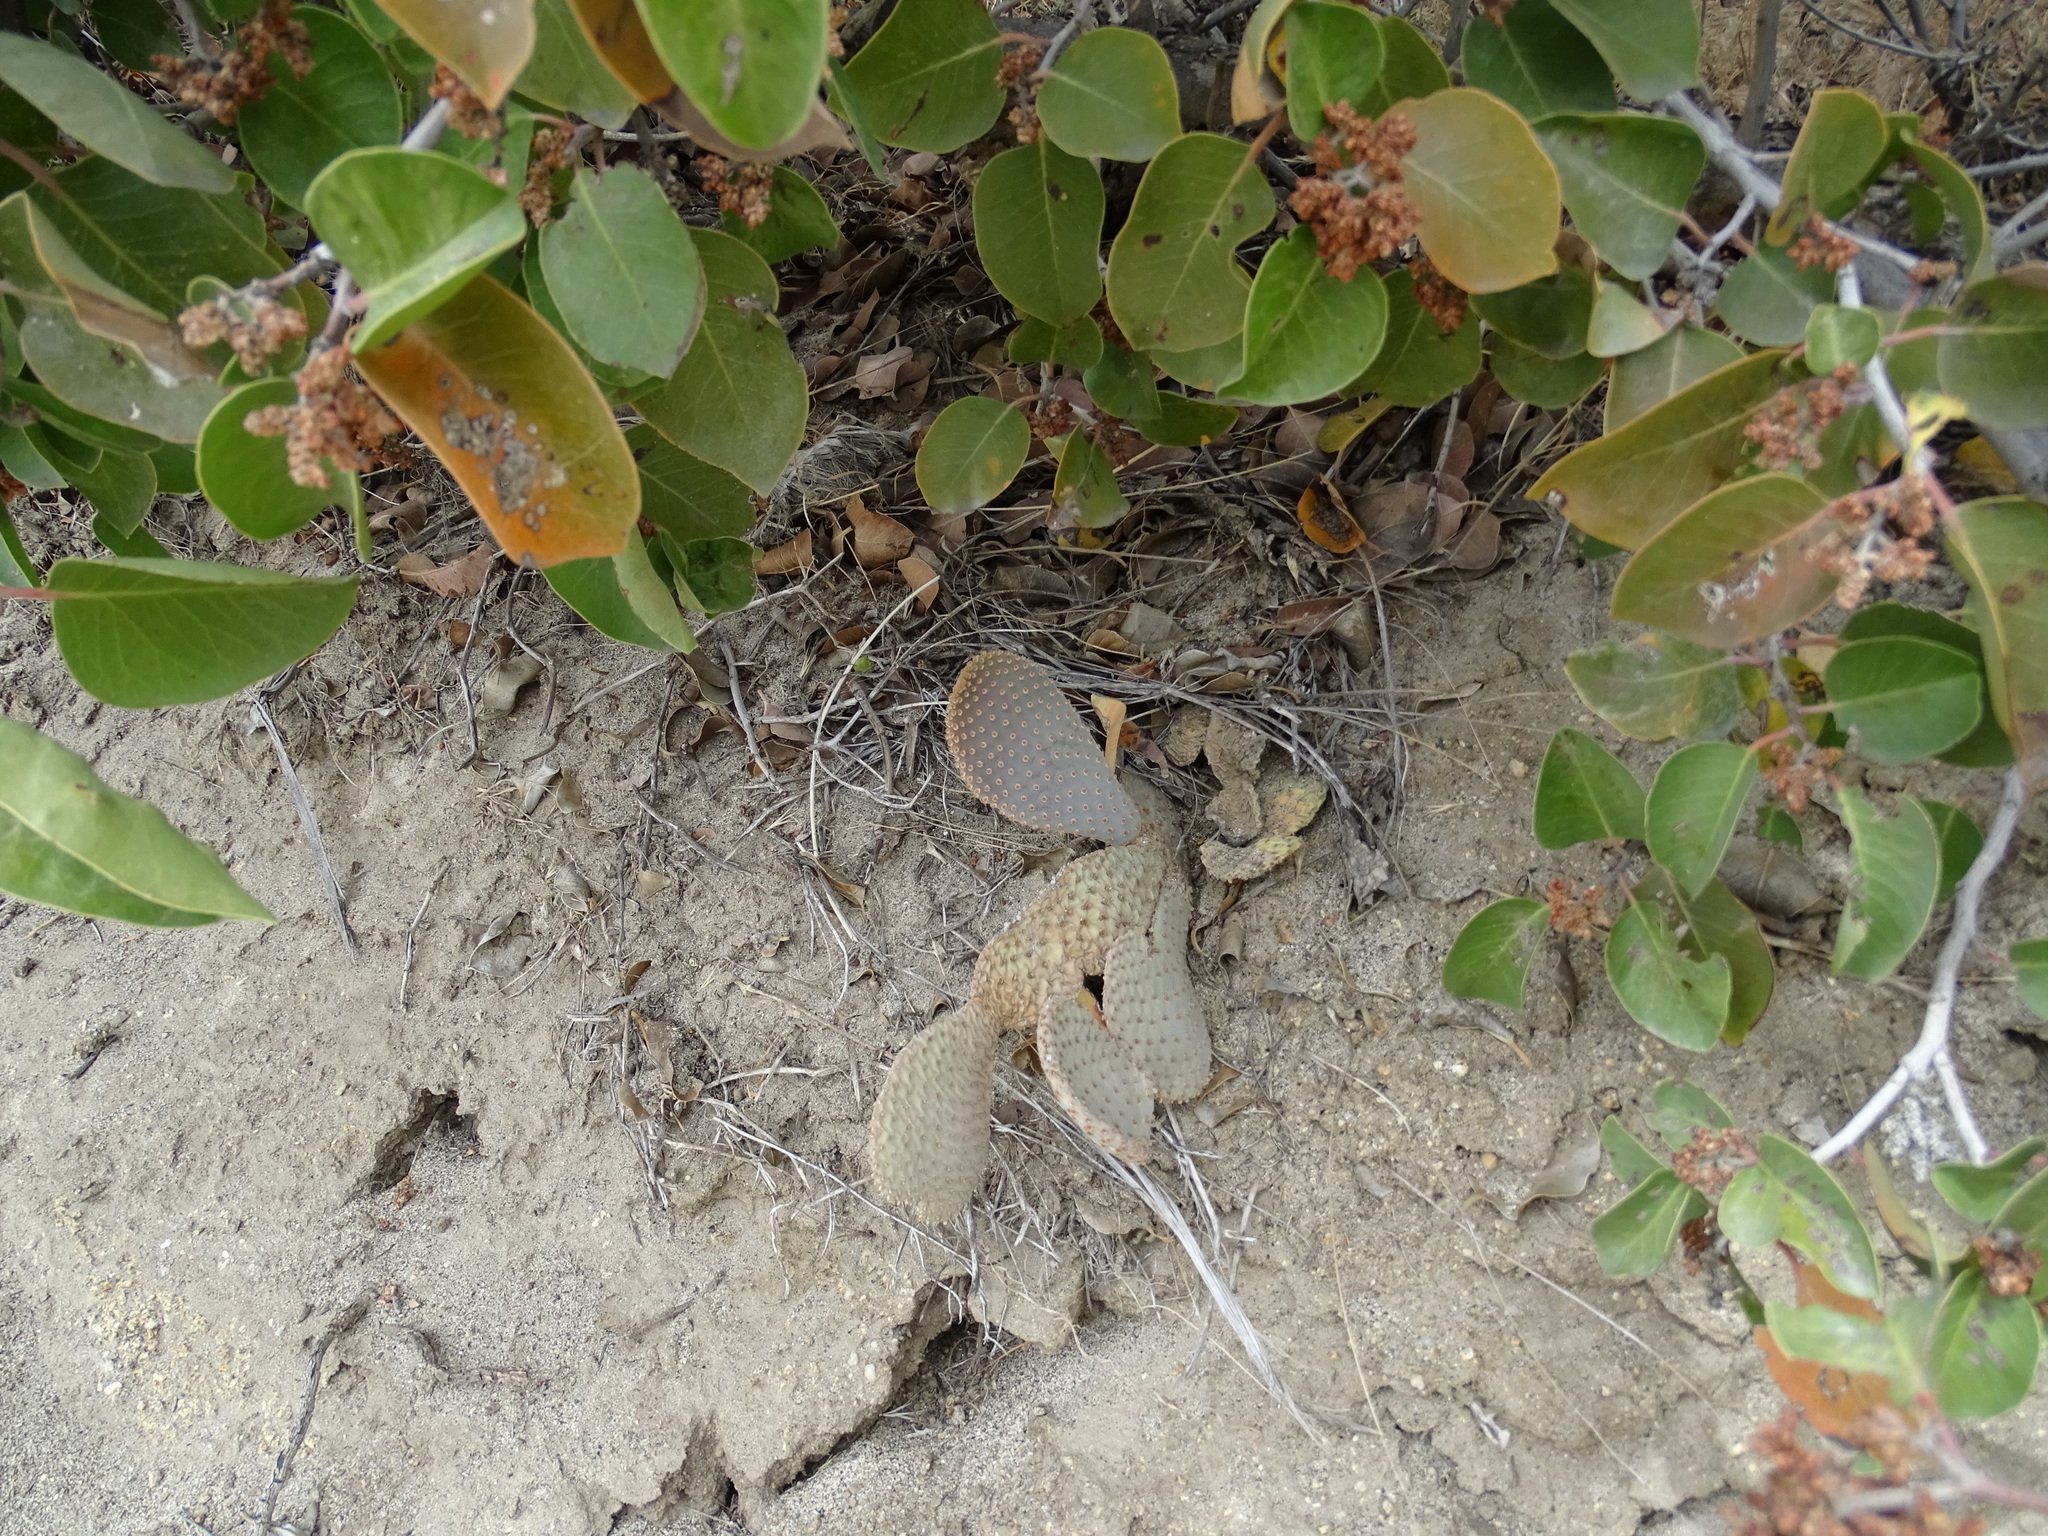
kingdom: Plantae
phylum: Tracheophyta
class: Magnoliopsida
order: Caryophyllales
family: Cactaceae
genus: Opuntia
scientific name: Opuntia basilaris
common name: Beavertail prickly-pear
